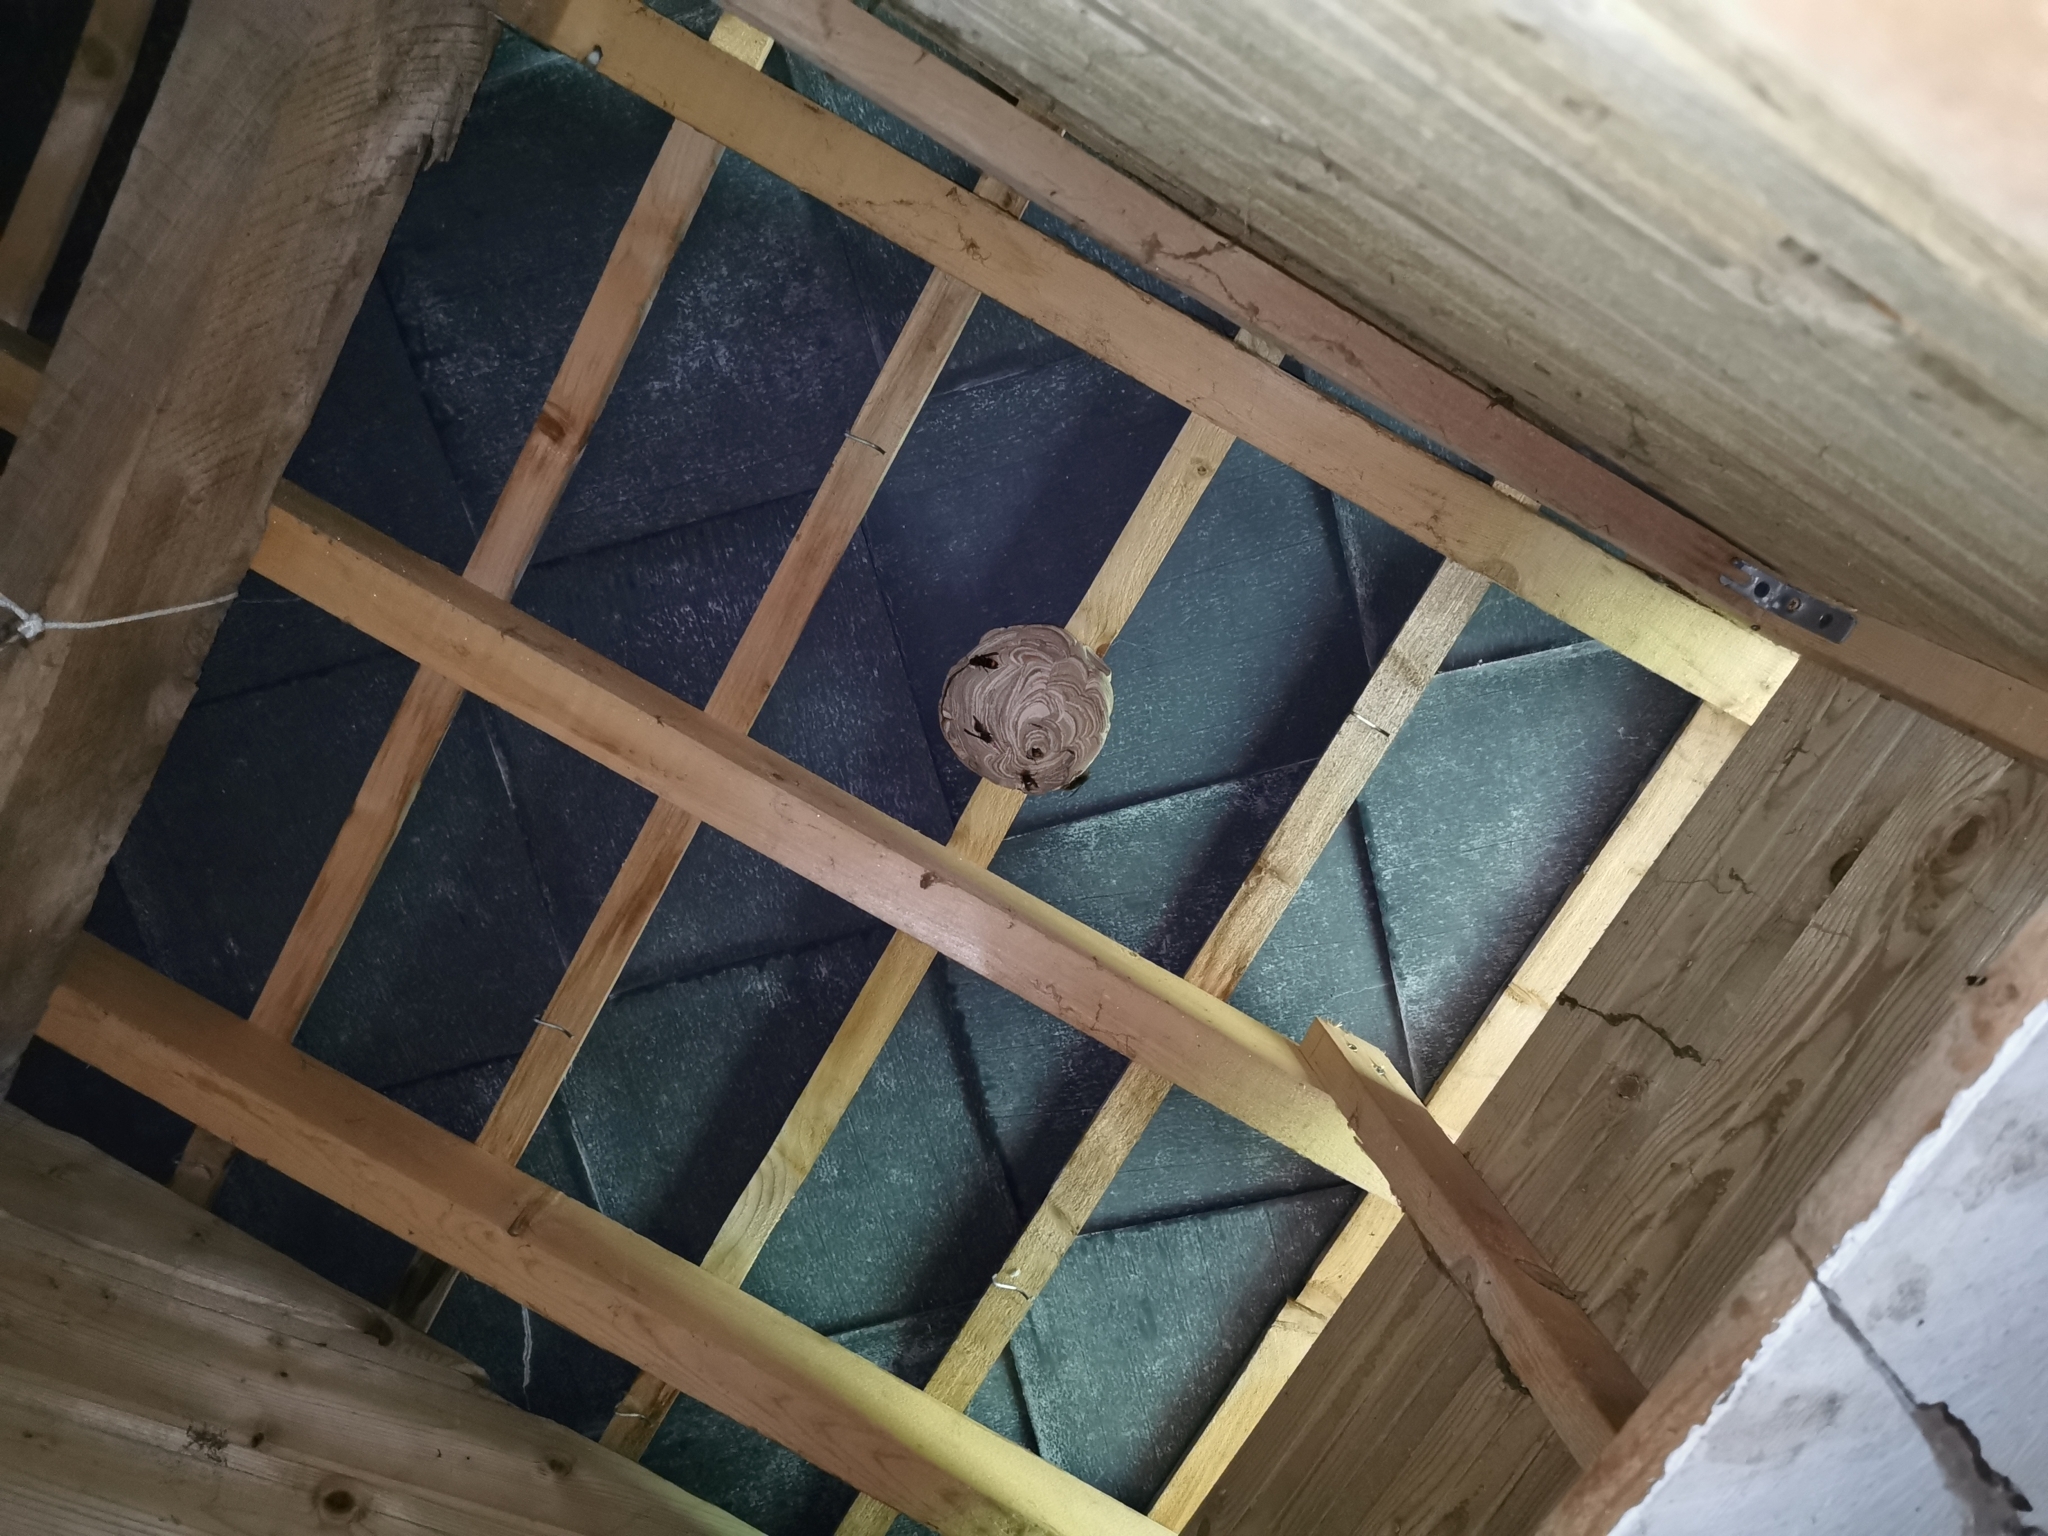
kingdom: Animalia
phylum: Arthropoda
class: Insecta
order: Hymenoptera
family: Vespidae
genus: Vespa
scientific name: Vespa velutina
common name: Asian hornet
